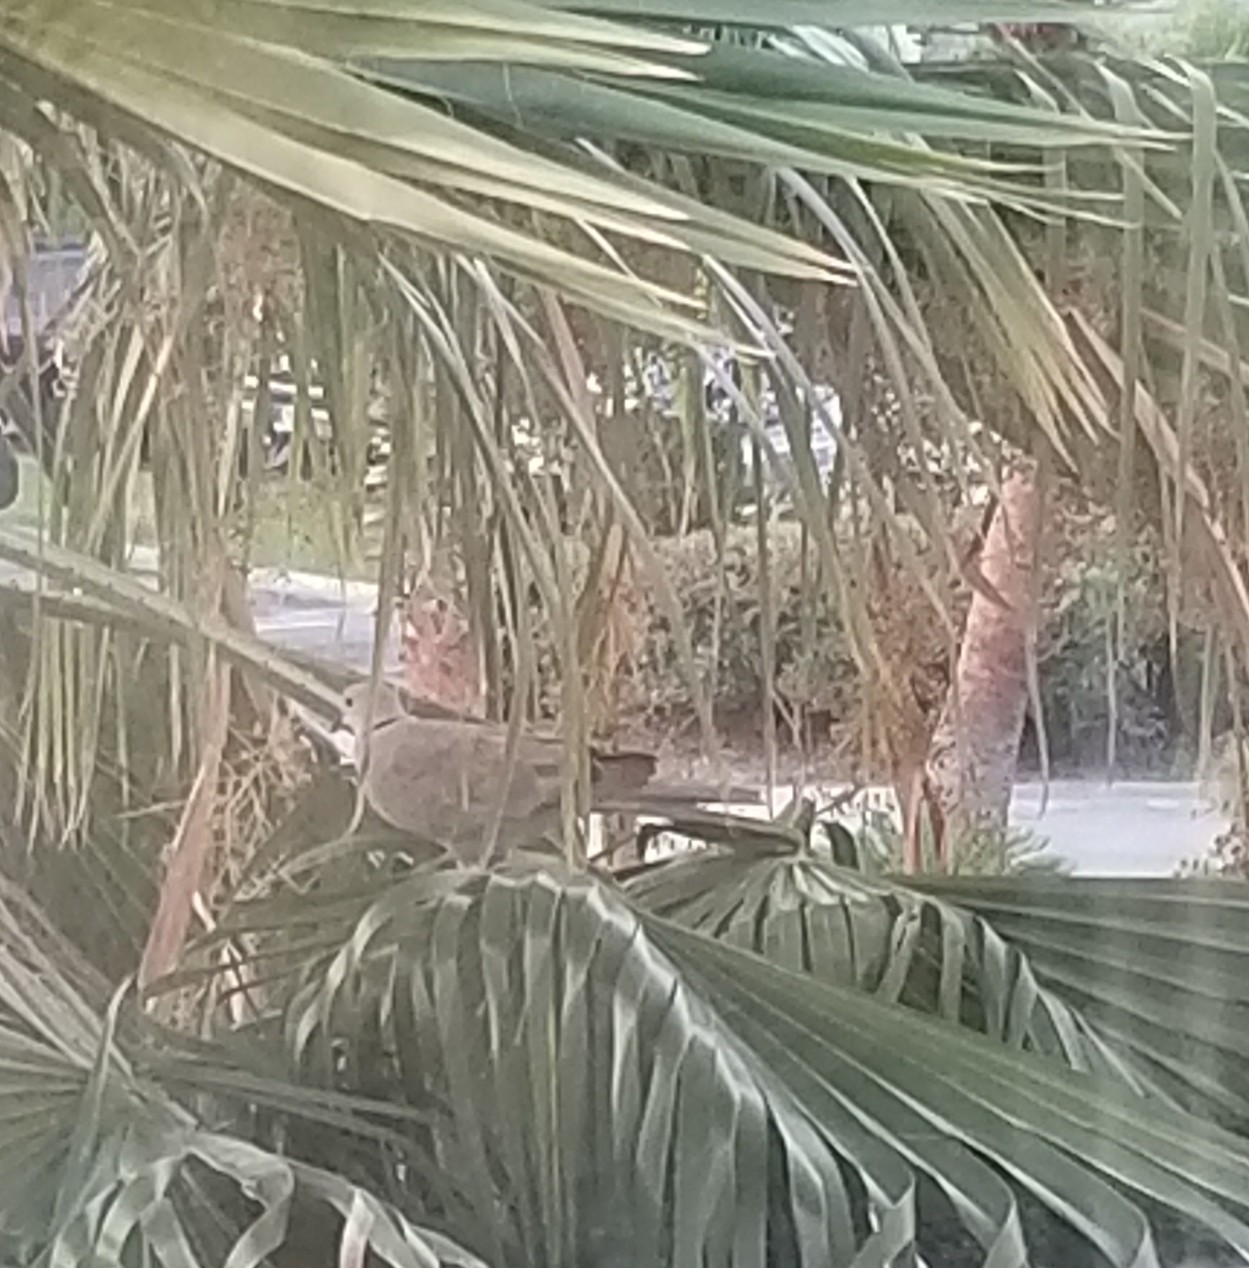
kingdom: Animalia
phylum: Chordata
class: Aves
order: Columbiformes
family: Columbidae
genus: Streptopelia
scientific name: Streptopelia decaocto
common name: Eurasian collared dove
